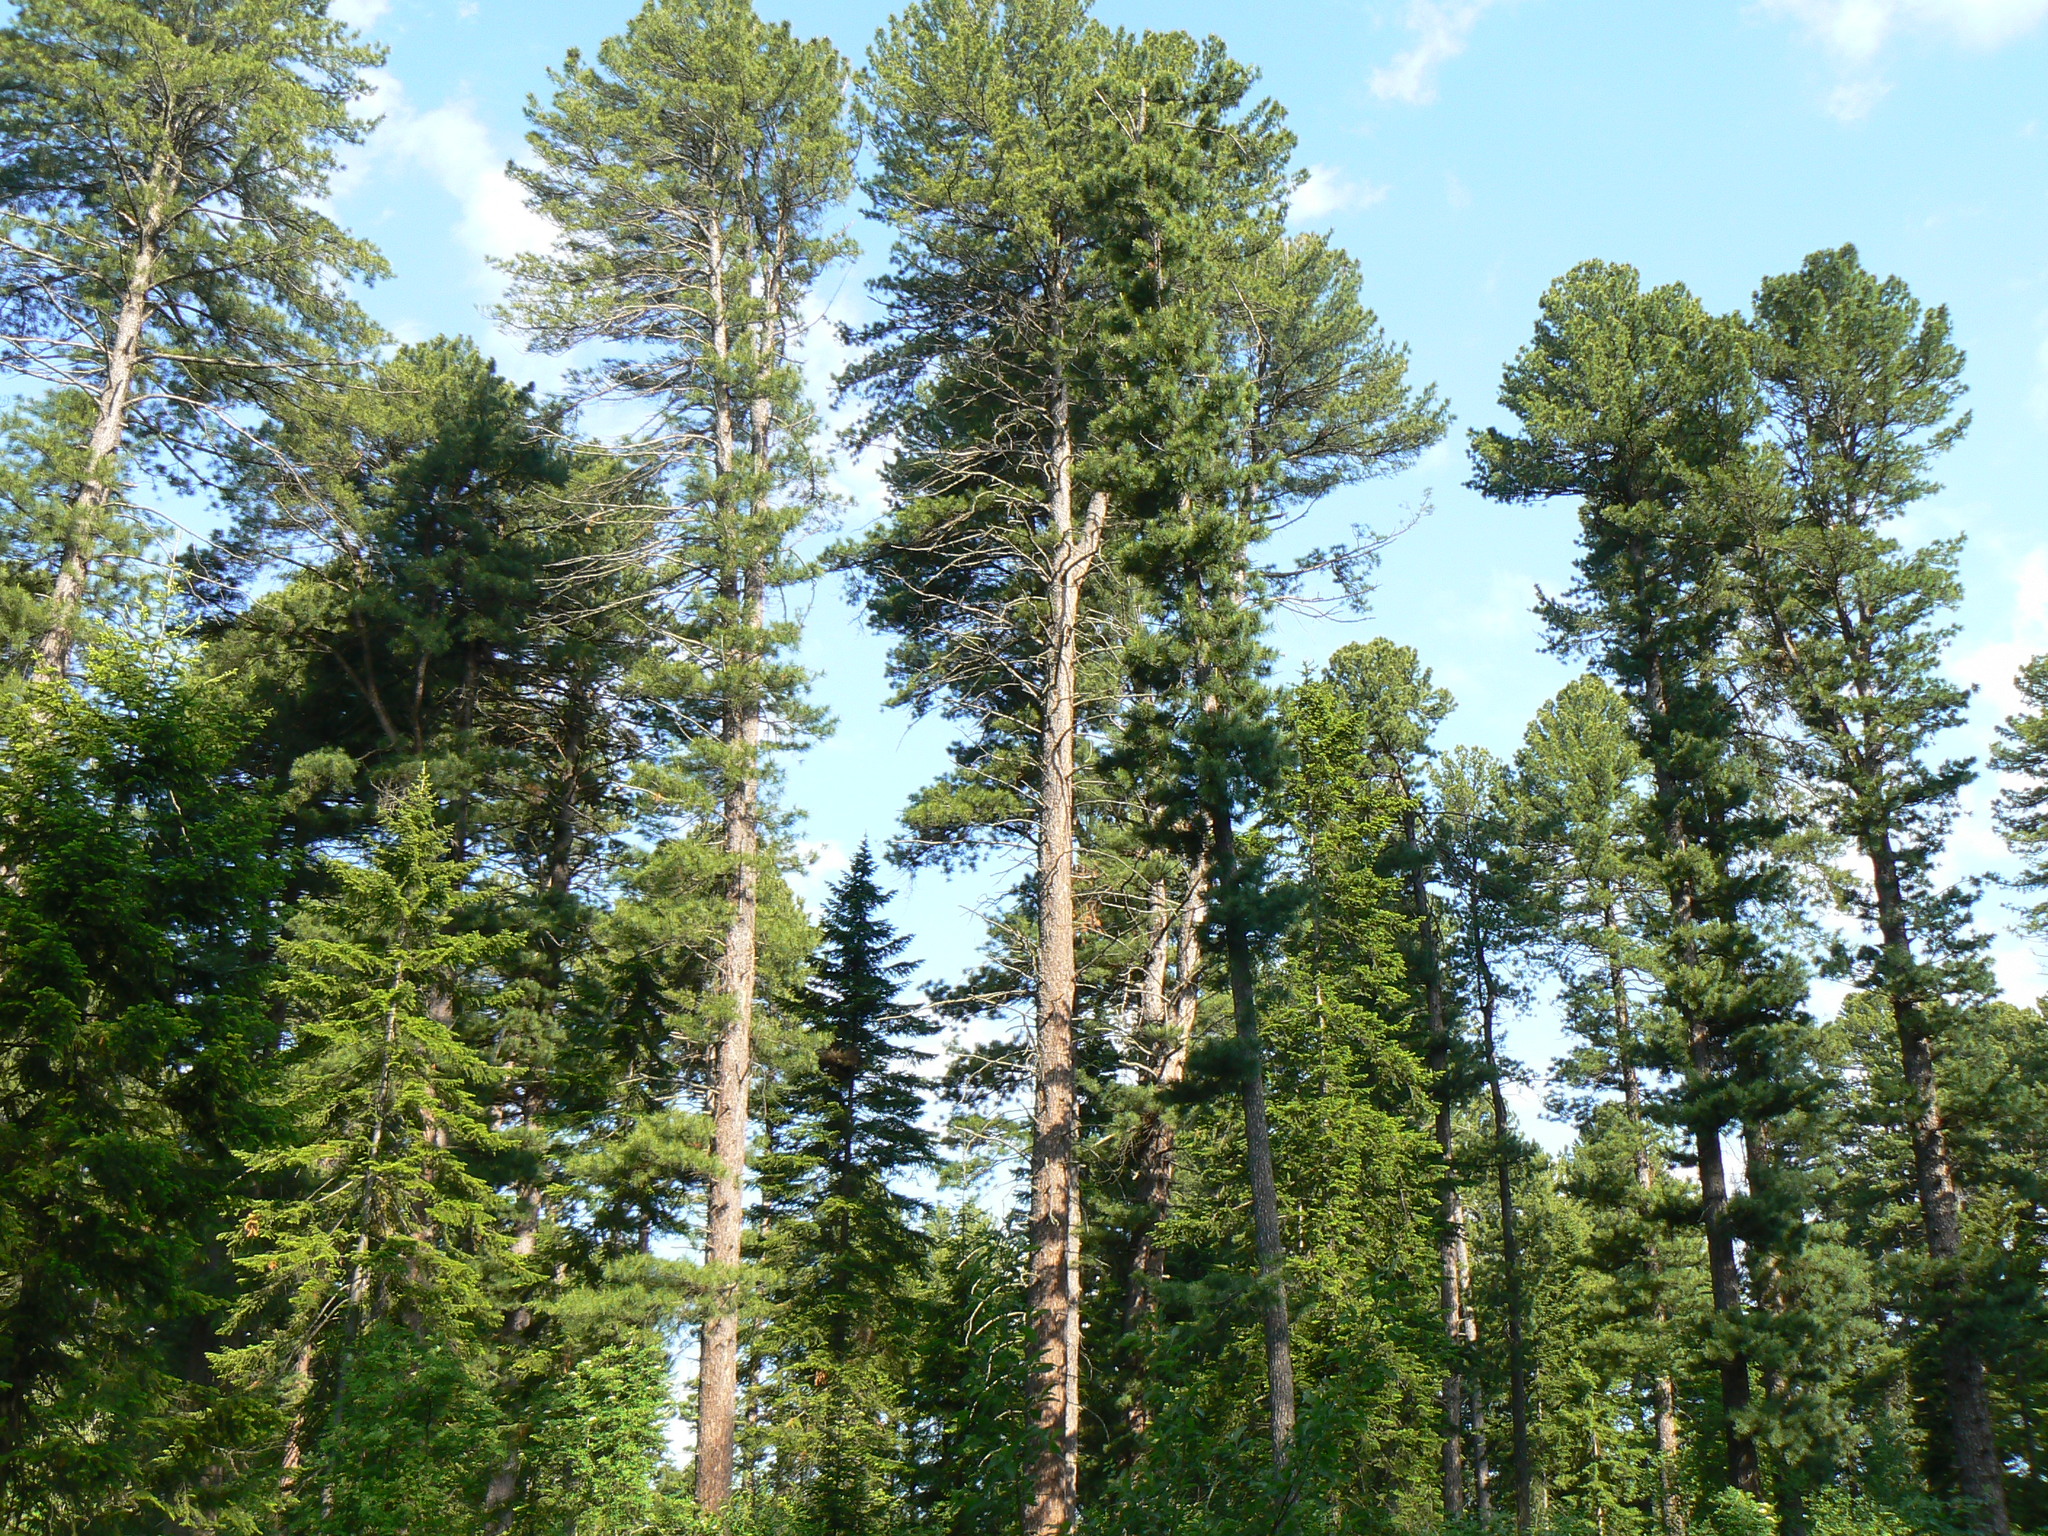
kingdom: Plantae
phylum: Tracheophyta
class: Pinopsida
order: Pinales
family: Pinaceae
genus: Pinus
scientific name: Pinus sibirica
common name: Siberian pine
